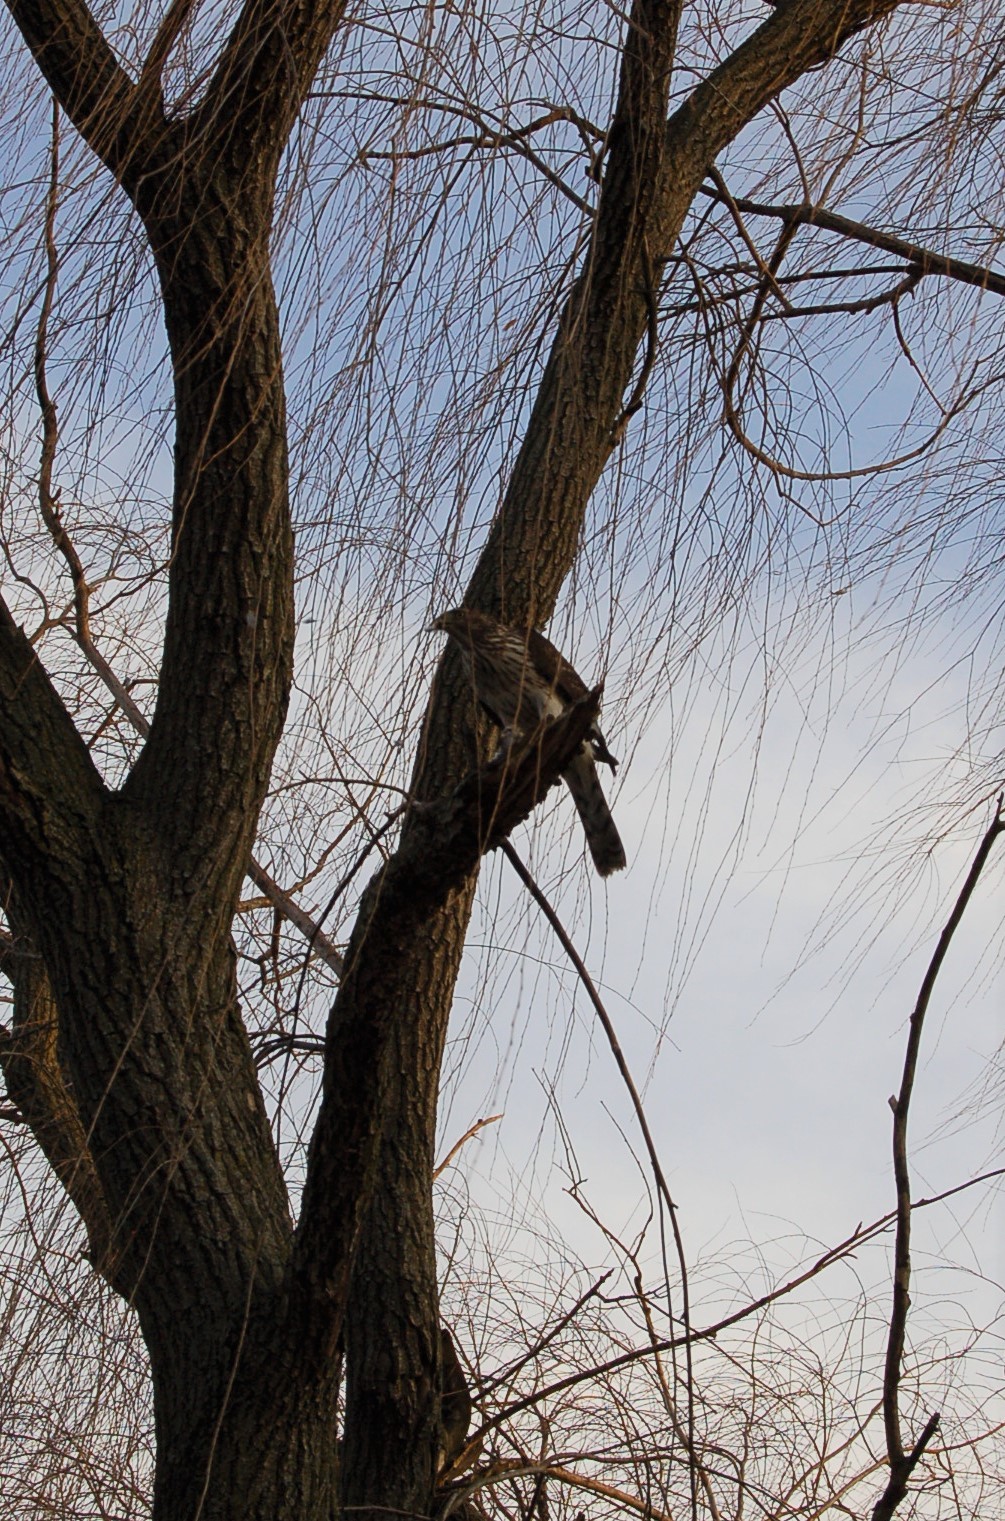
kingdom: Animalia
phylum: Chordata
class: Aves
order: Accipitriformes
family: Accipitridae
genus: Accipiter
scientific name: Accipiter cooperii
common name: Cooper's hawk
